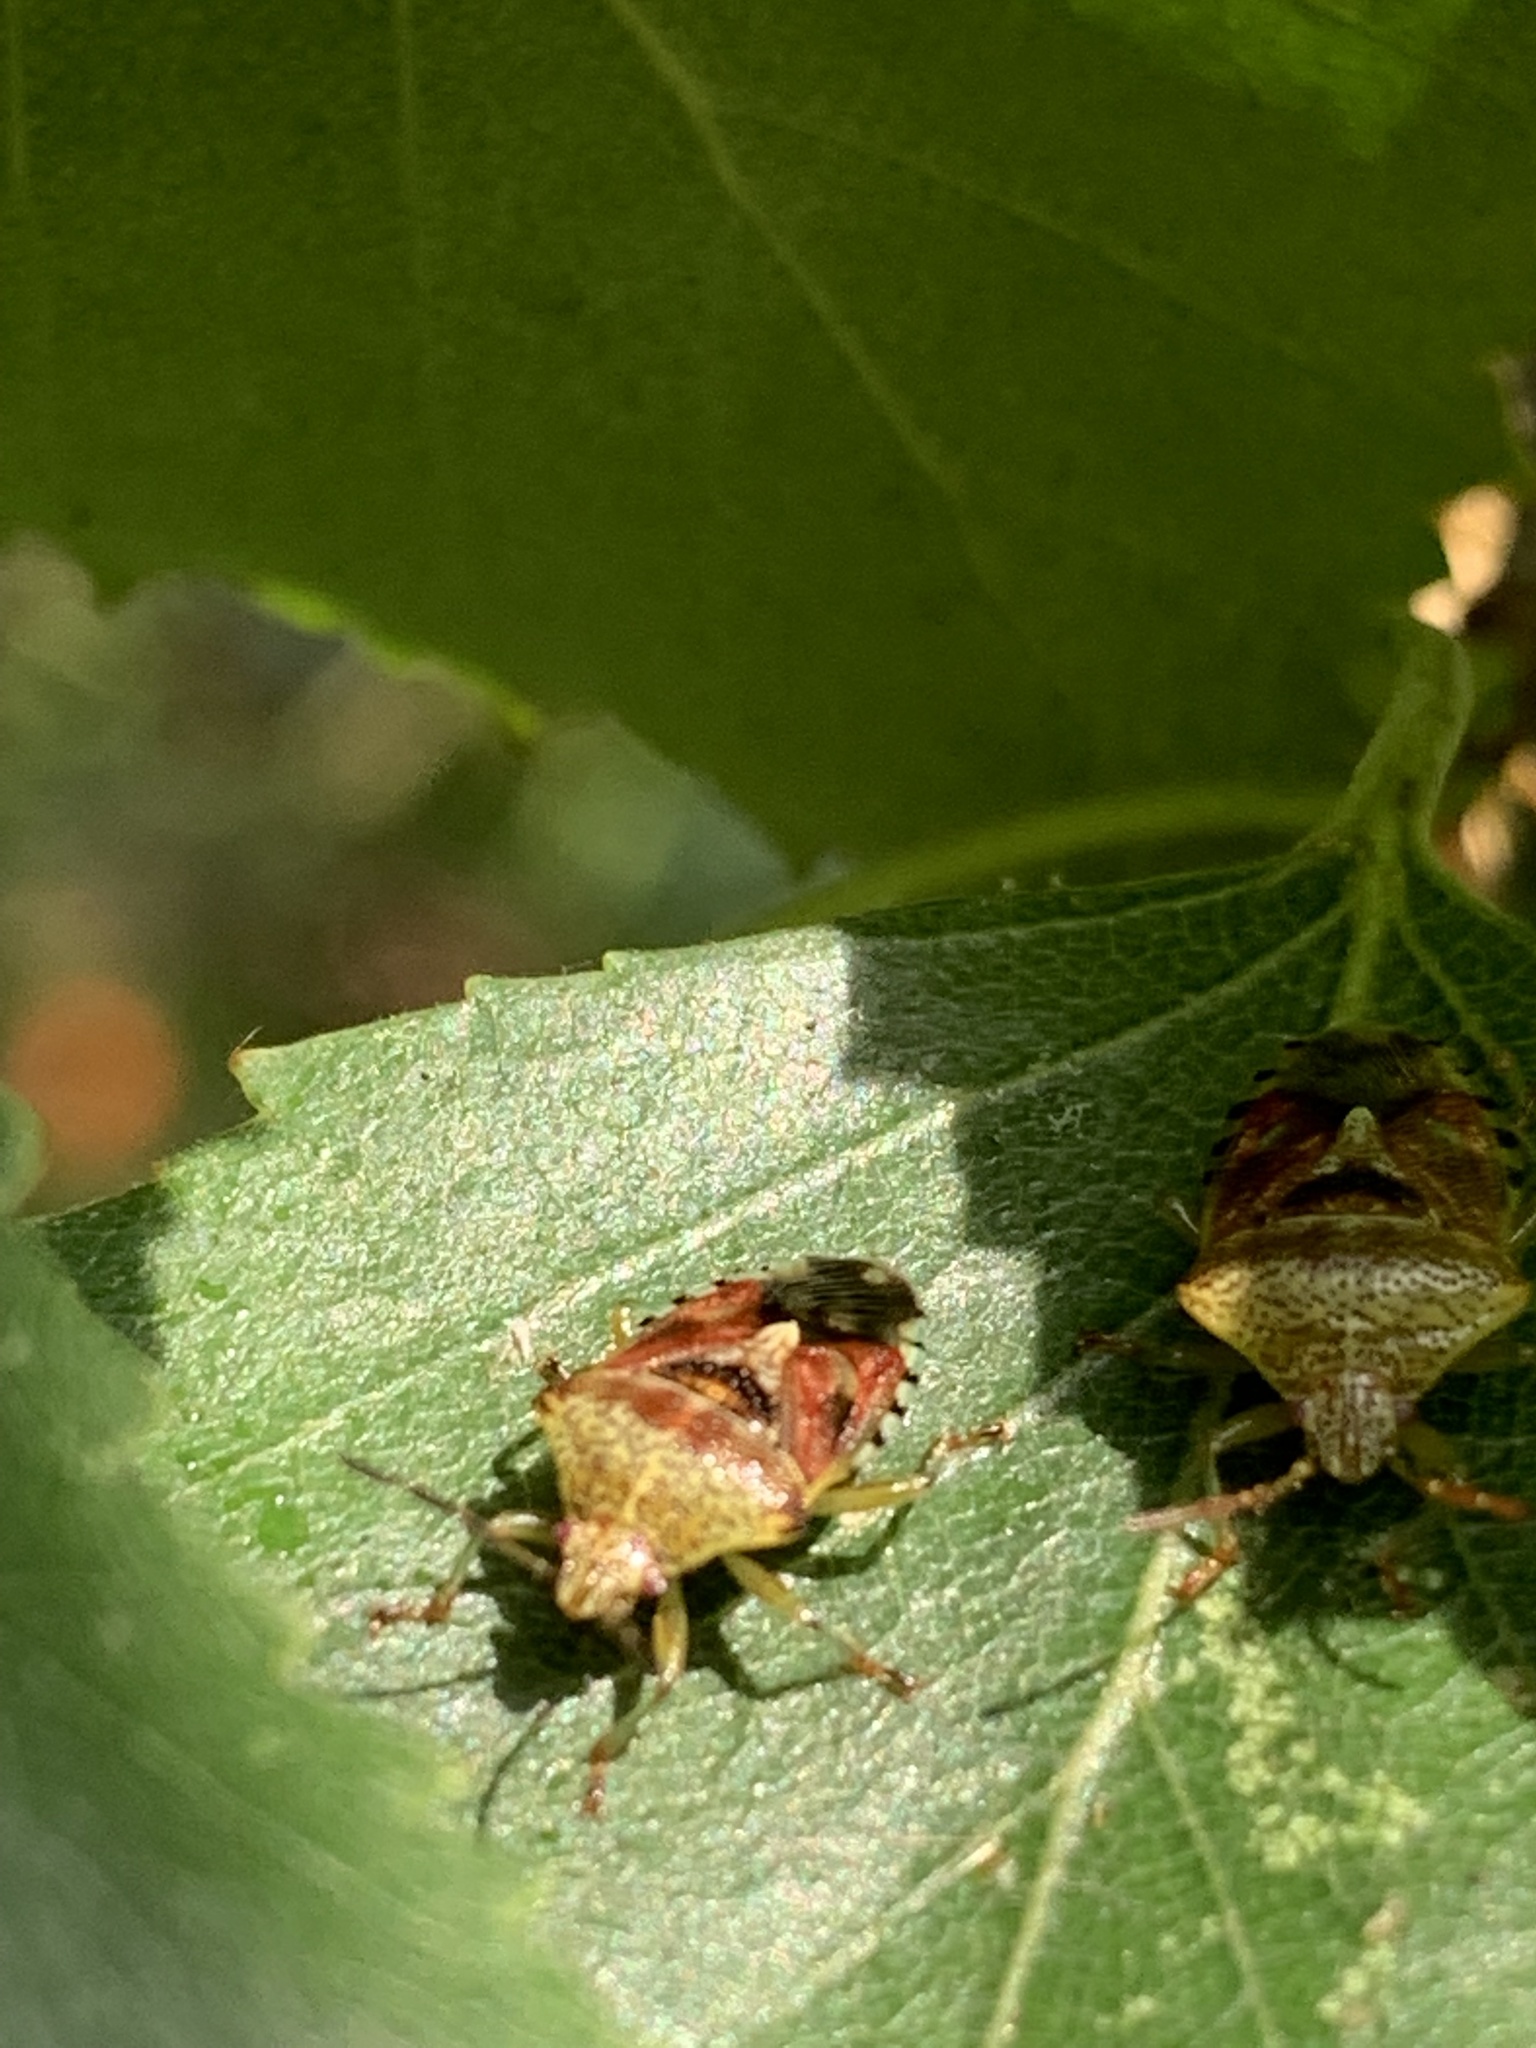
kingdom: Animalia
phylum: Arthropoda
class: Insecta
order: Hemiptera
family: Acanthosomatidae
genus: Elasmucha
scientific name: Elasmucha grisea
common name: Parent bug
